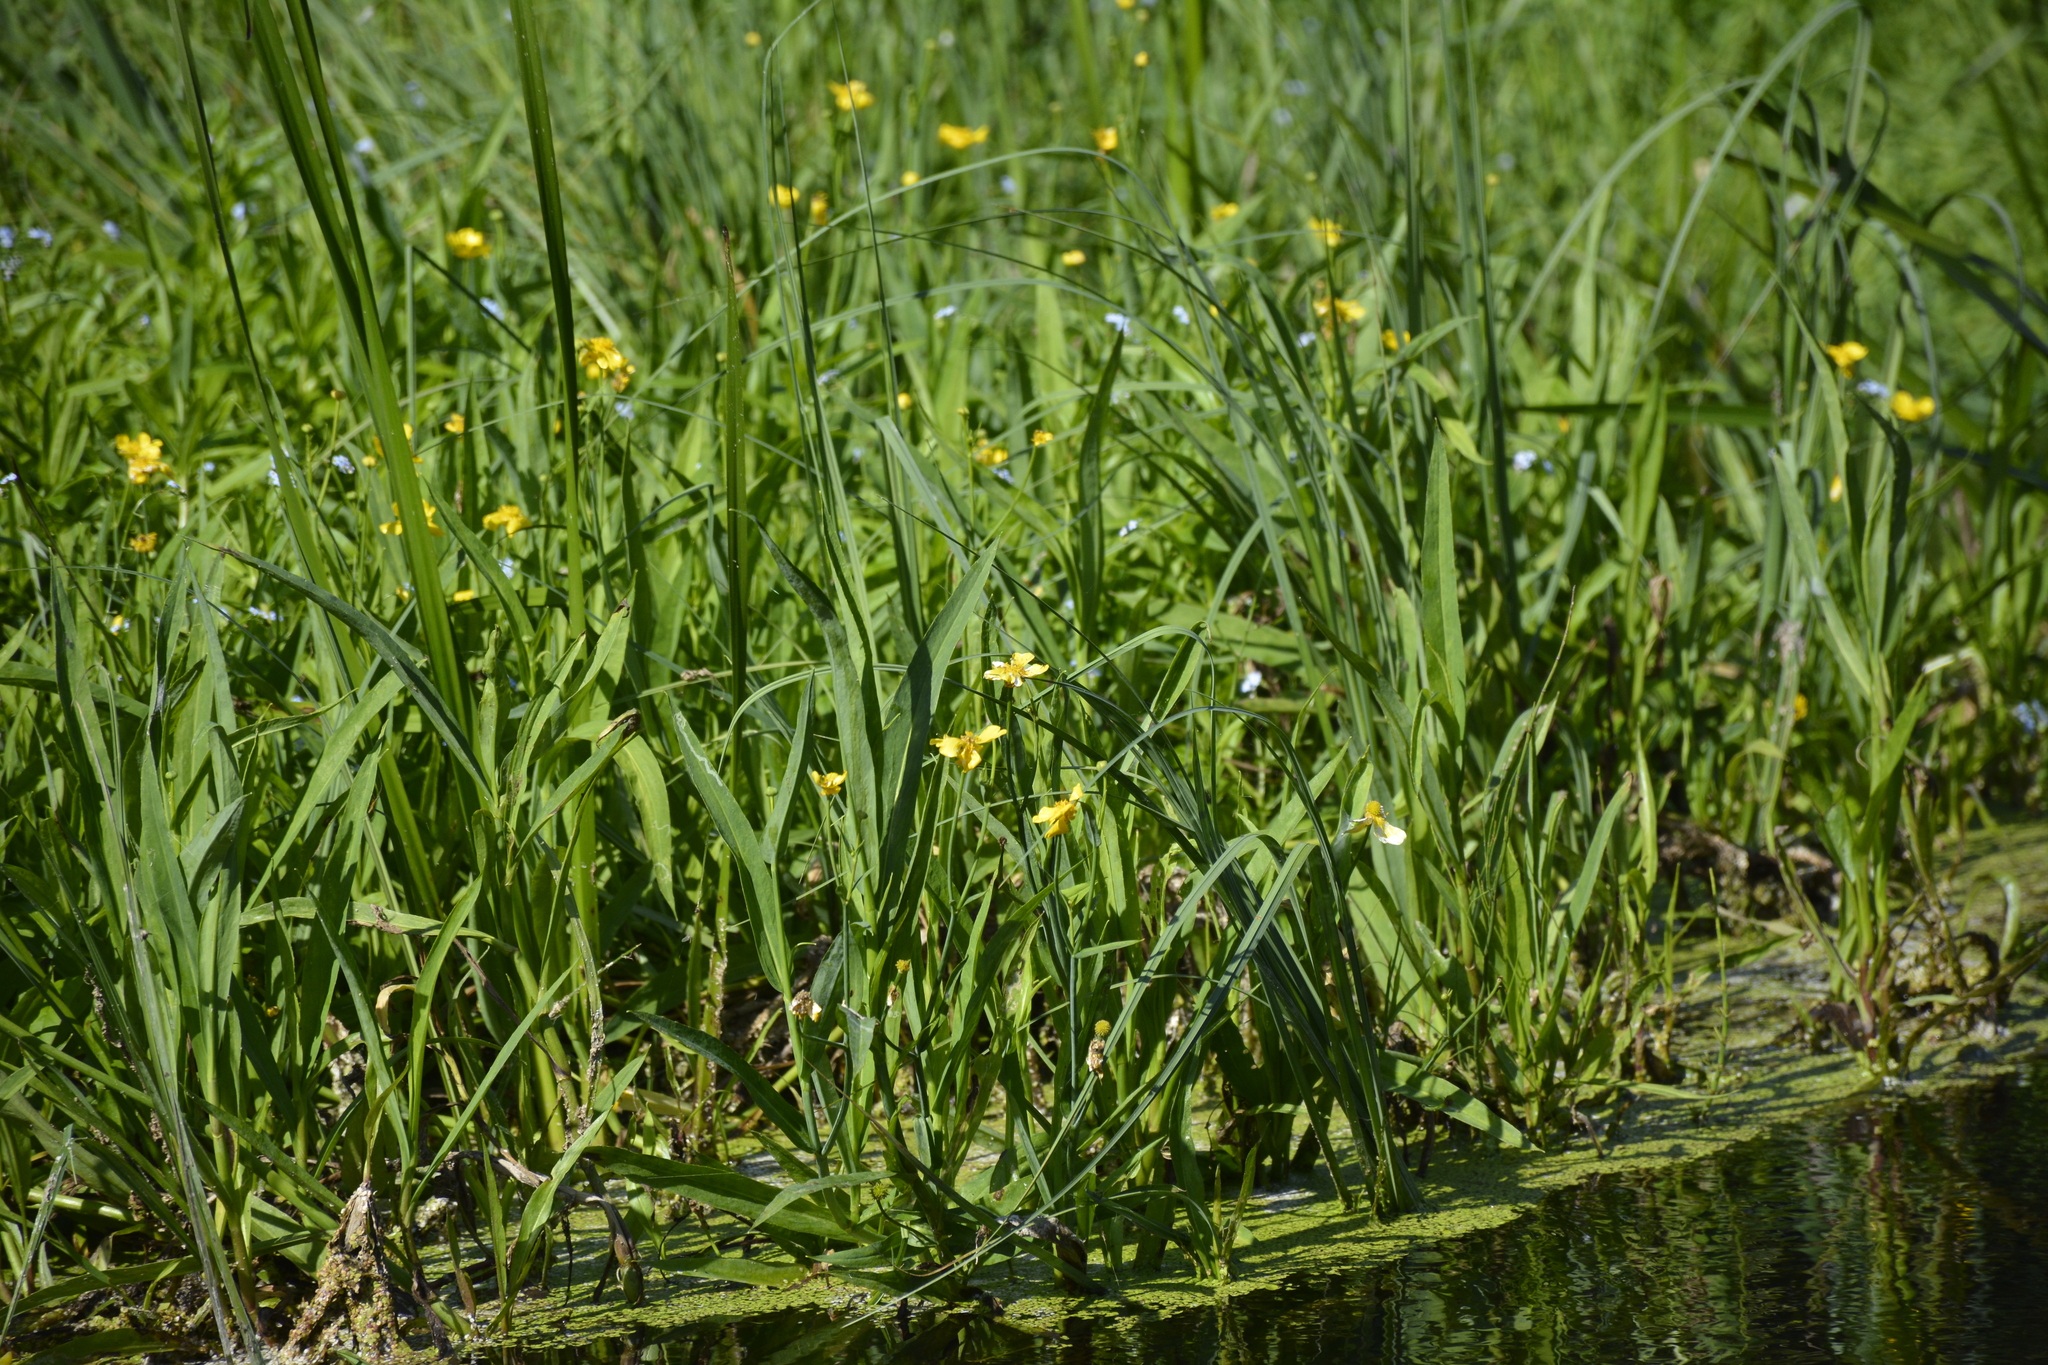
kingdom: Plantae
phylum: Tracheophyta
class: Magnoliopsida
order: Ranunculales
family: Ranunculaceae
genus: Ranunculus
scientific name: Ranunculus lingua
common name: Greater spearwort
